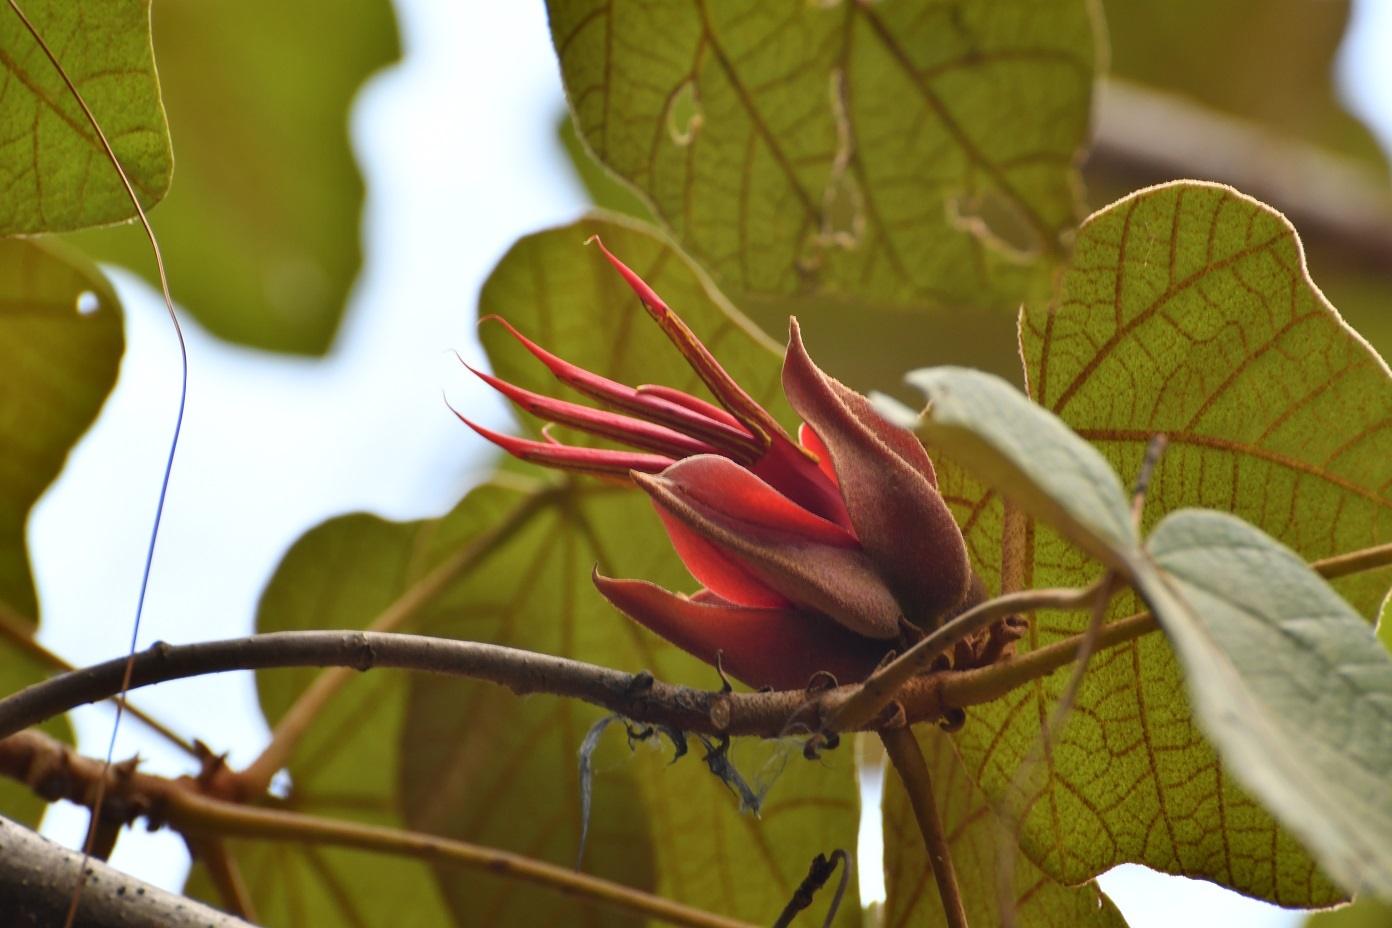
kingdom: Plantae
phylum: Tracheophyta
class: Magnoliopsida
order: Malvales
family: Malvaceae
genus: Chiranthodendron
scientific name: Chiranthodendron pentadactylon
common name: Mexican-hat-plant
